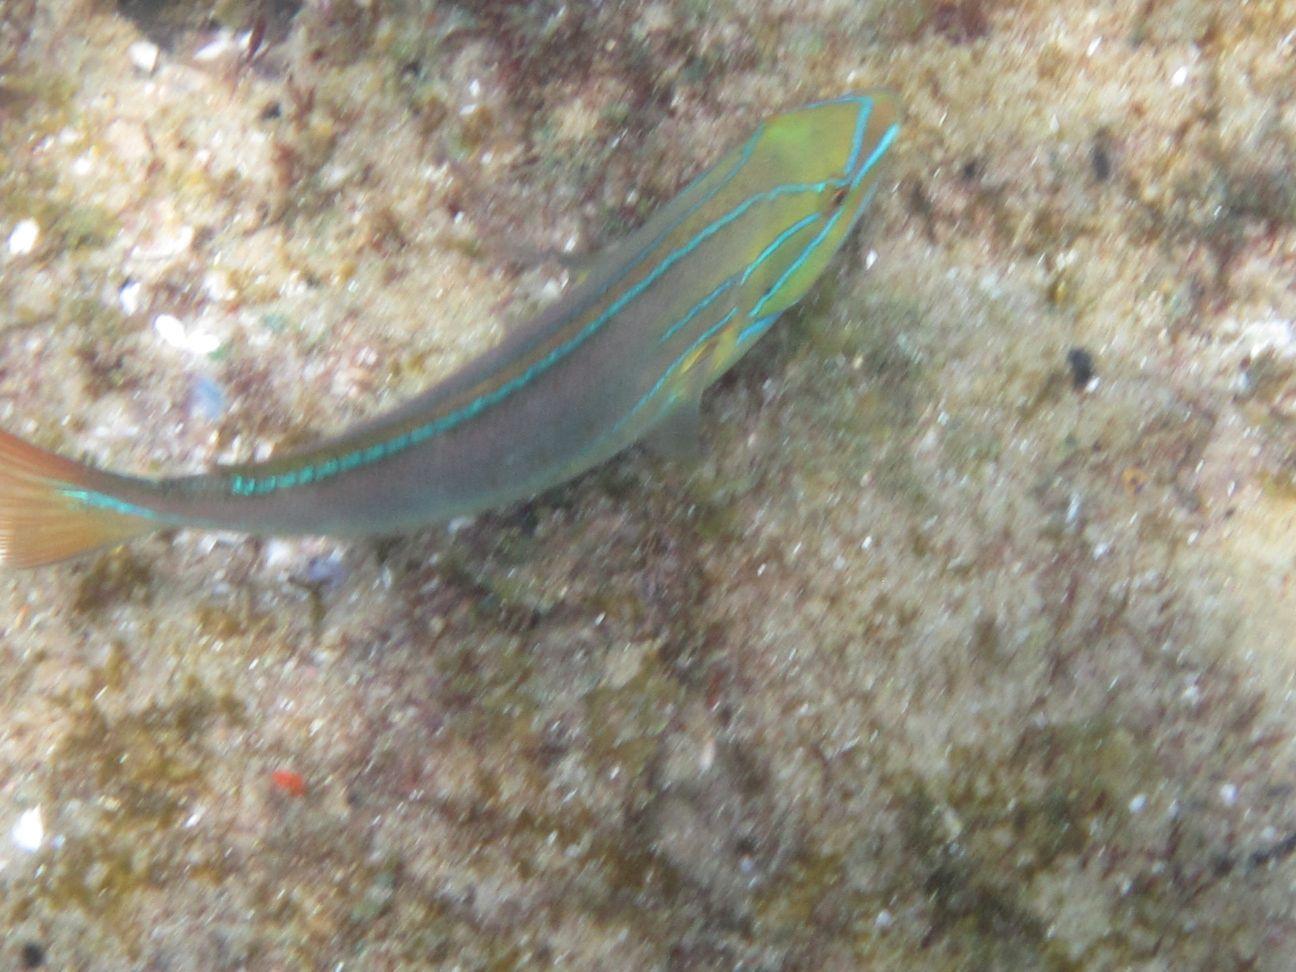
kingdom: Animalia
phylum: Chordata
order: Perciformes
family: Labridae
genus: Stethojulis
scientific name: Stethojulis albovittata
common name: Bluelined wrasse
